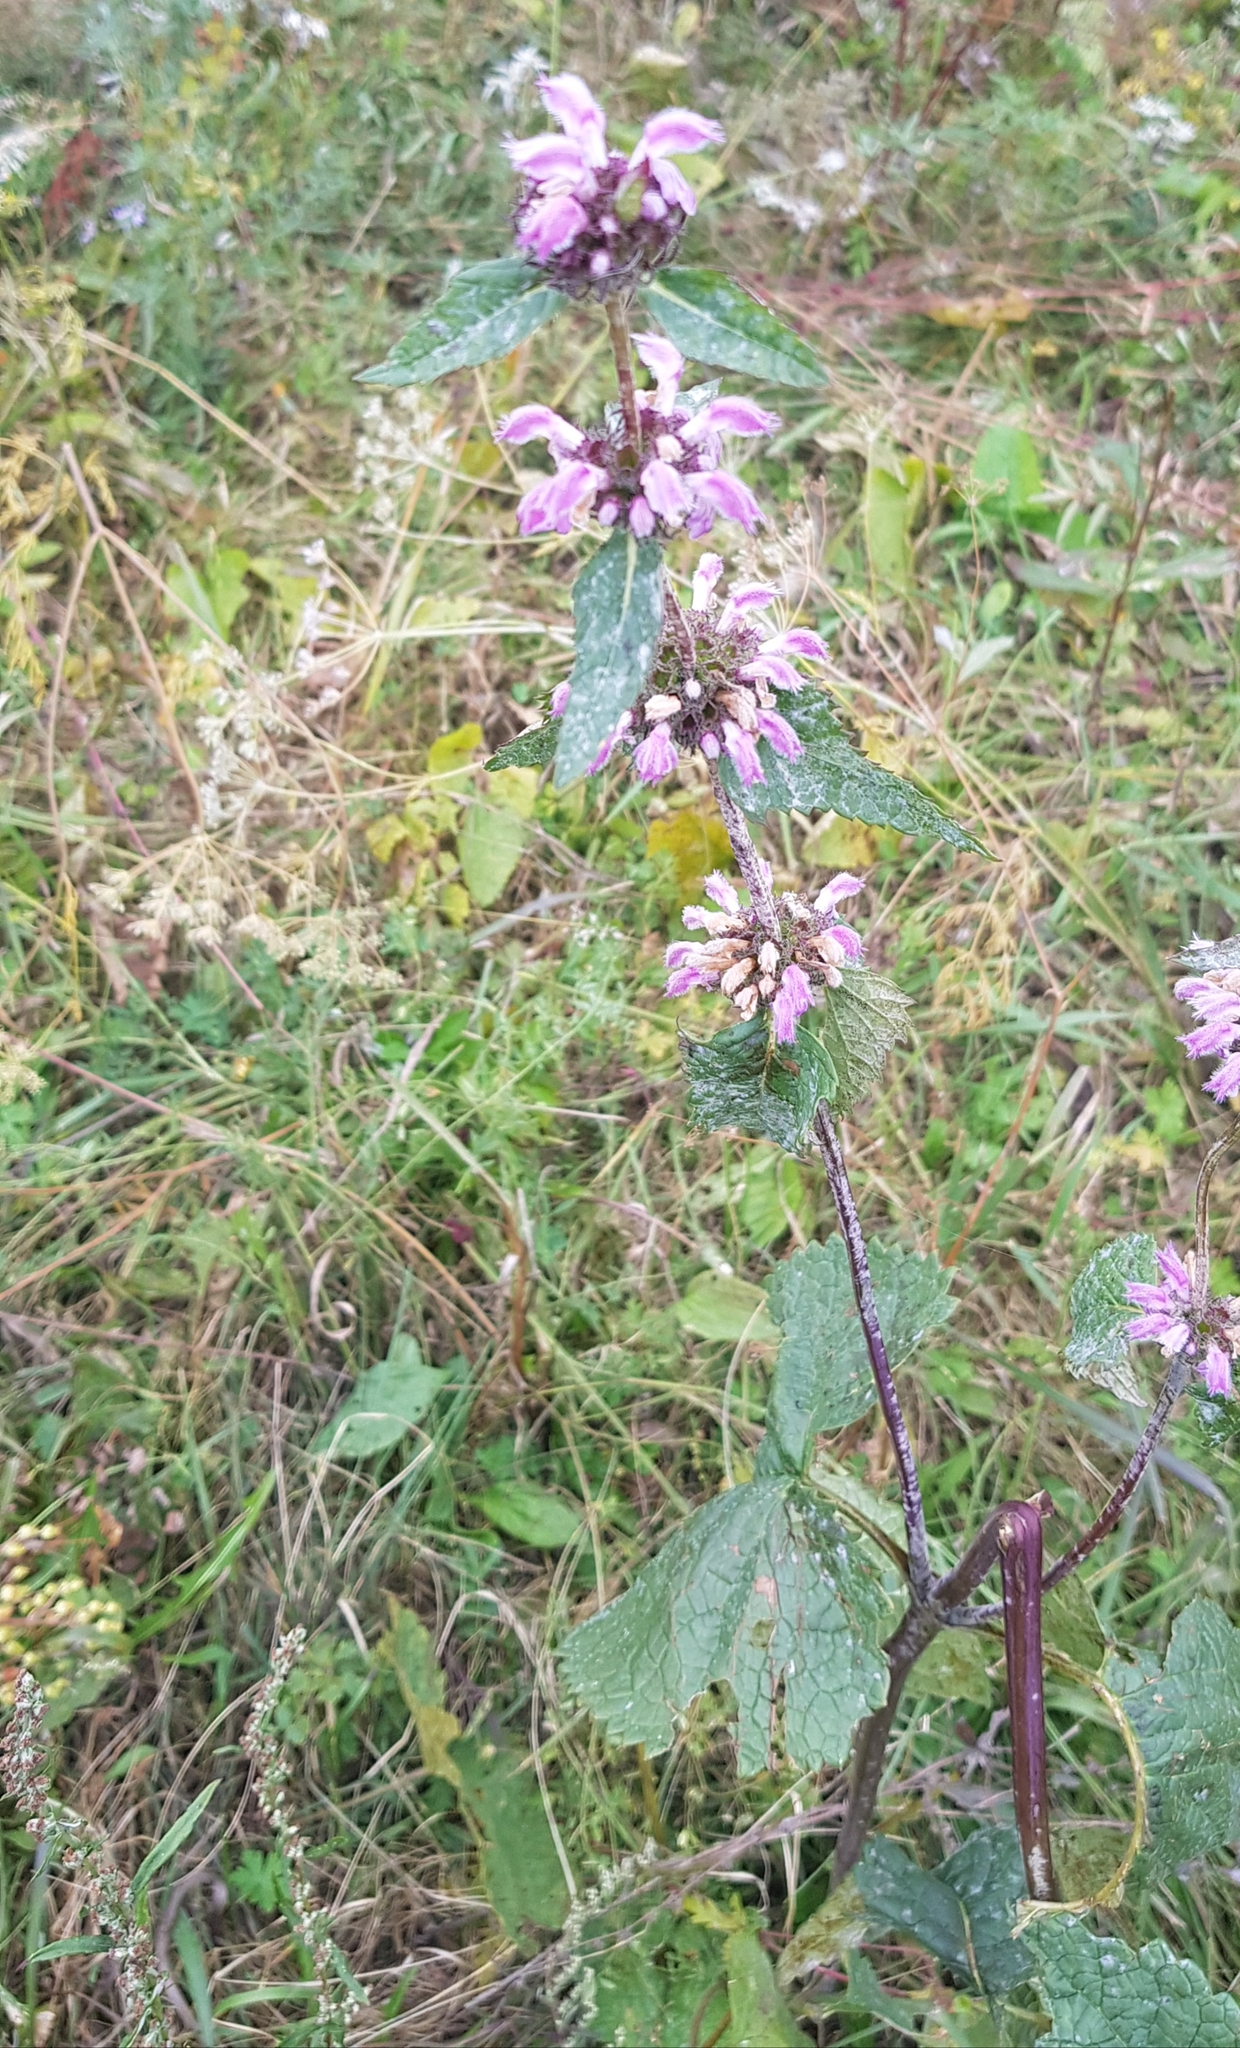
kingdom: Plantae
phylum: Tracheophyta
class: Magnoliopsida
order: Lamiales
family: Lamiaceae
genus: Phlomoides
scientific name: Phlomoides tuberosa
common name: Tuberous jerusalem sage
